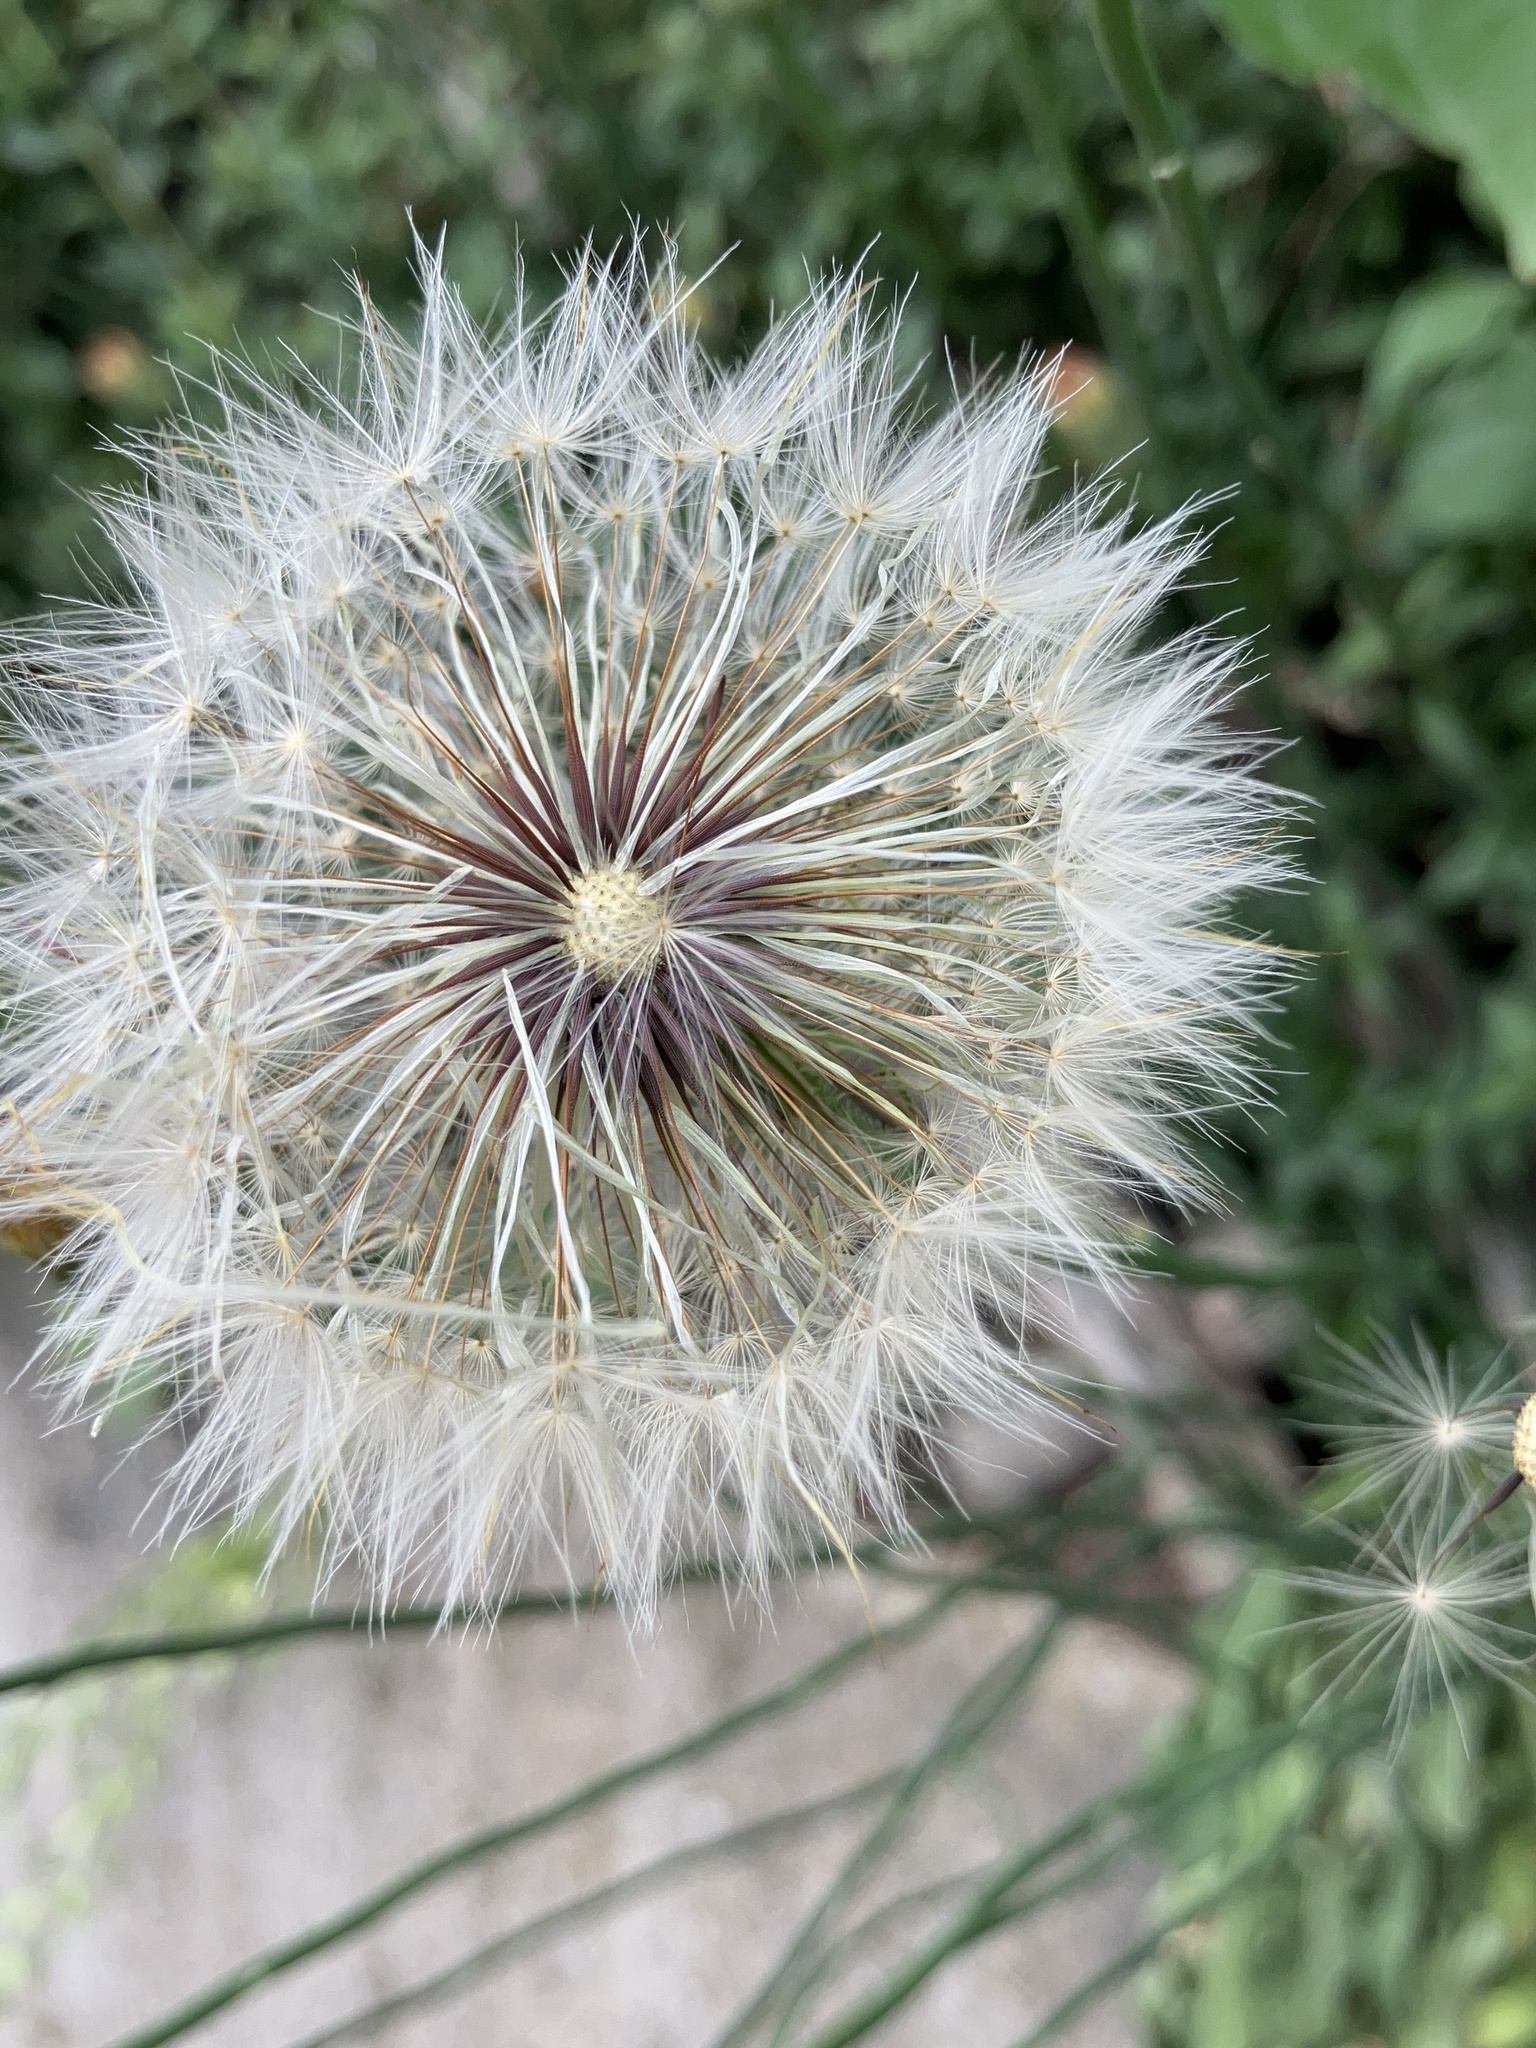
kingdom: Plantae
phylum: Tracheophyta
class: Magnoliopsida
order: Asterales
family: Asteraceae
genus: Hypochaeris
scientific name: Hypochaeris radicata
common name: Flatweed
